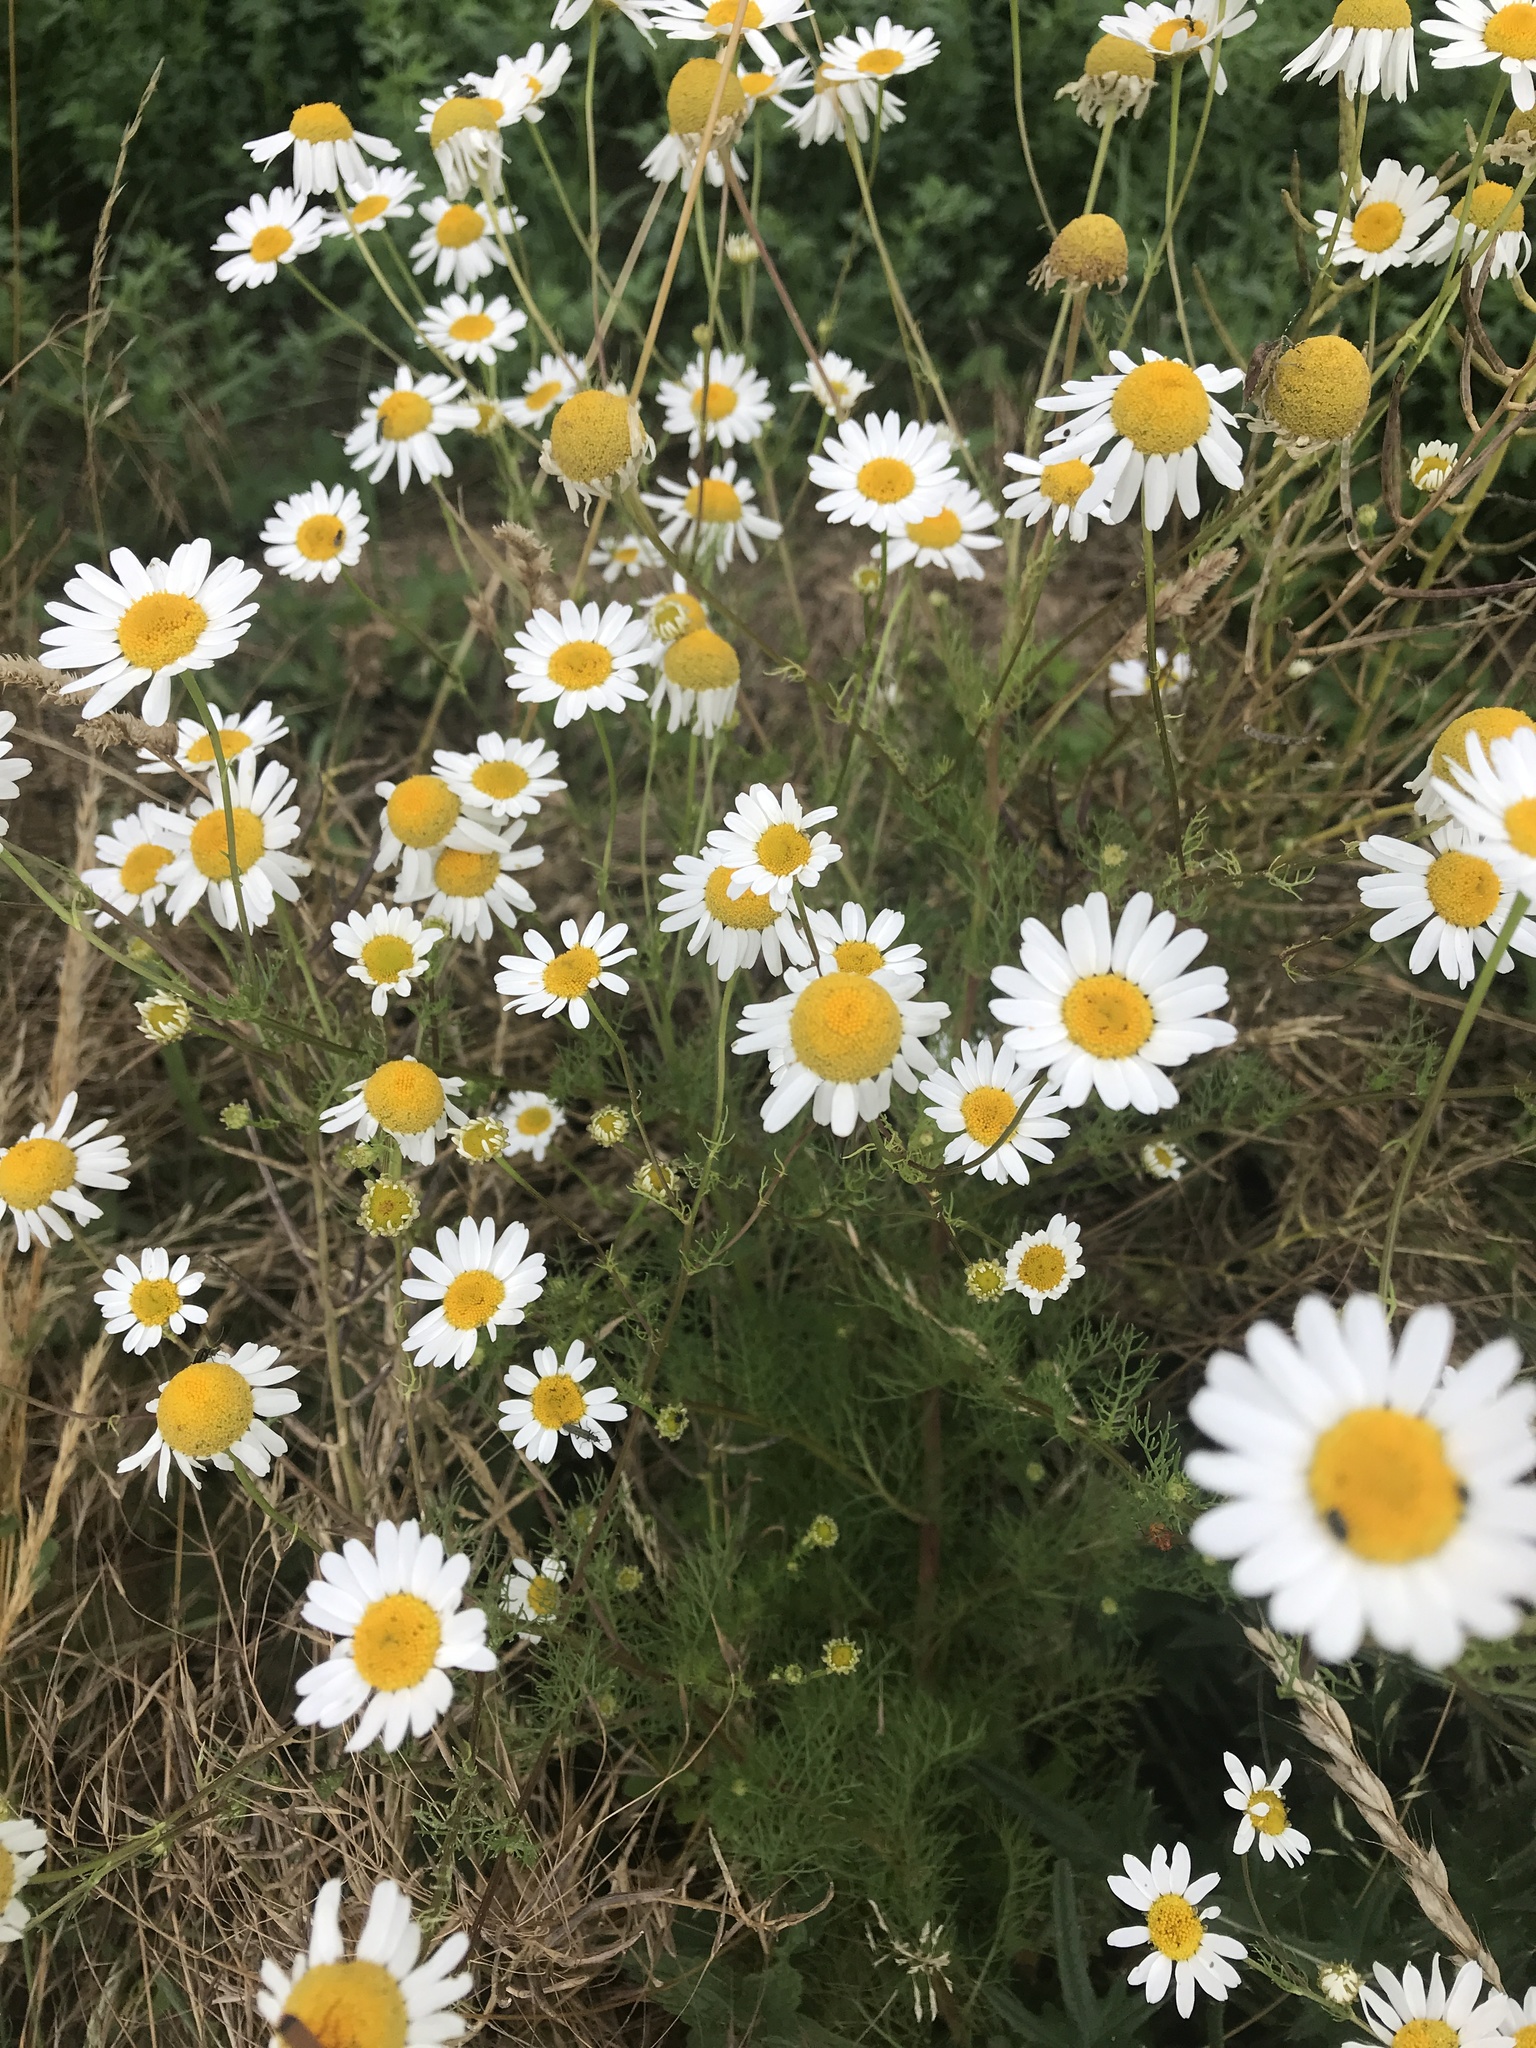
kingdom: Plantae
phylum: Tracheophyta
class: Magnoliopsida
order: Asterales
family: Asteraceae
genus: Tripleurospermum
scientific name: Tripleurospermum inodorum
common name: Scentless mayweed
